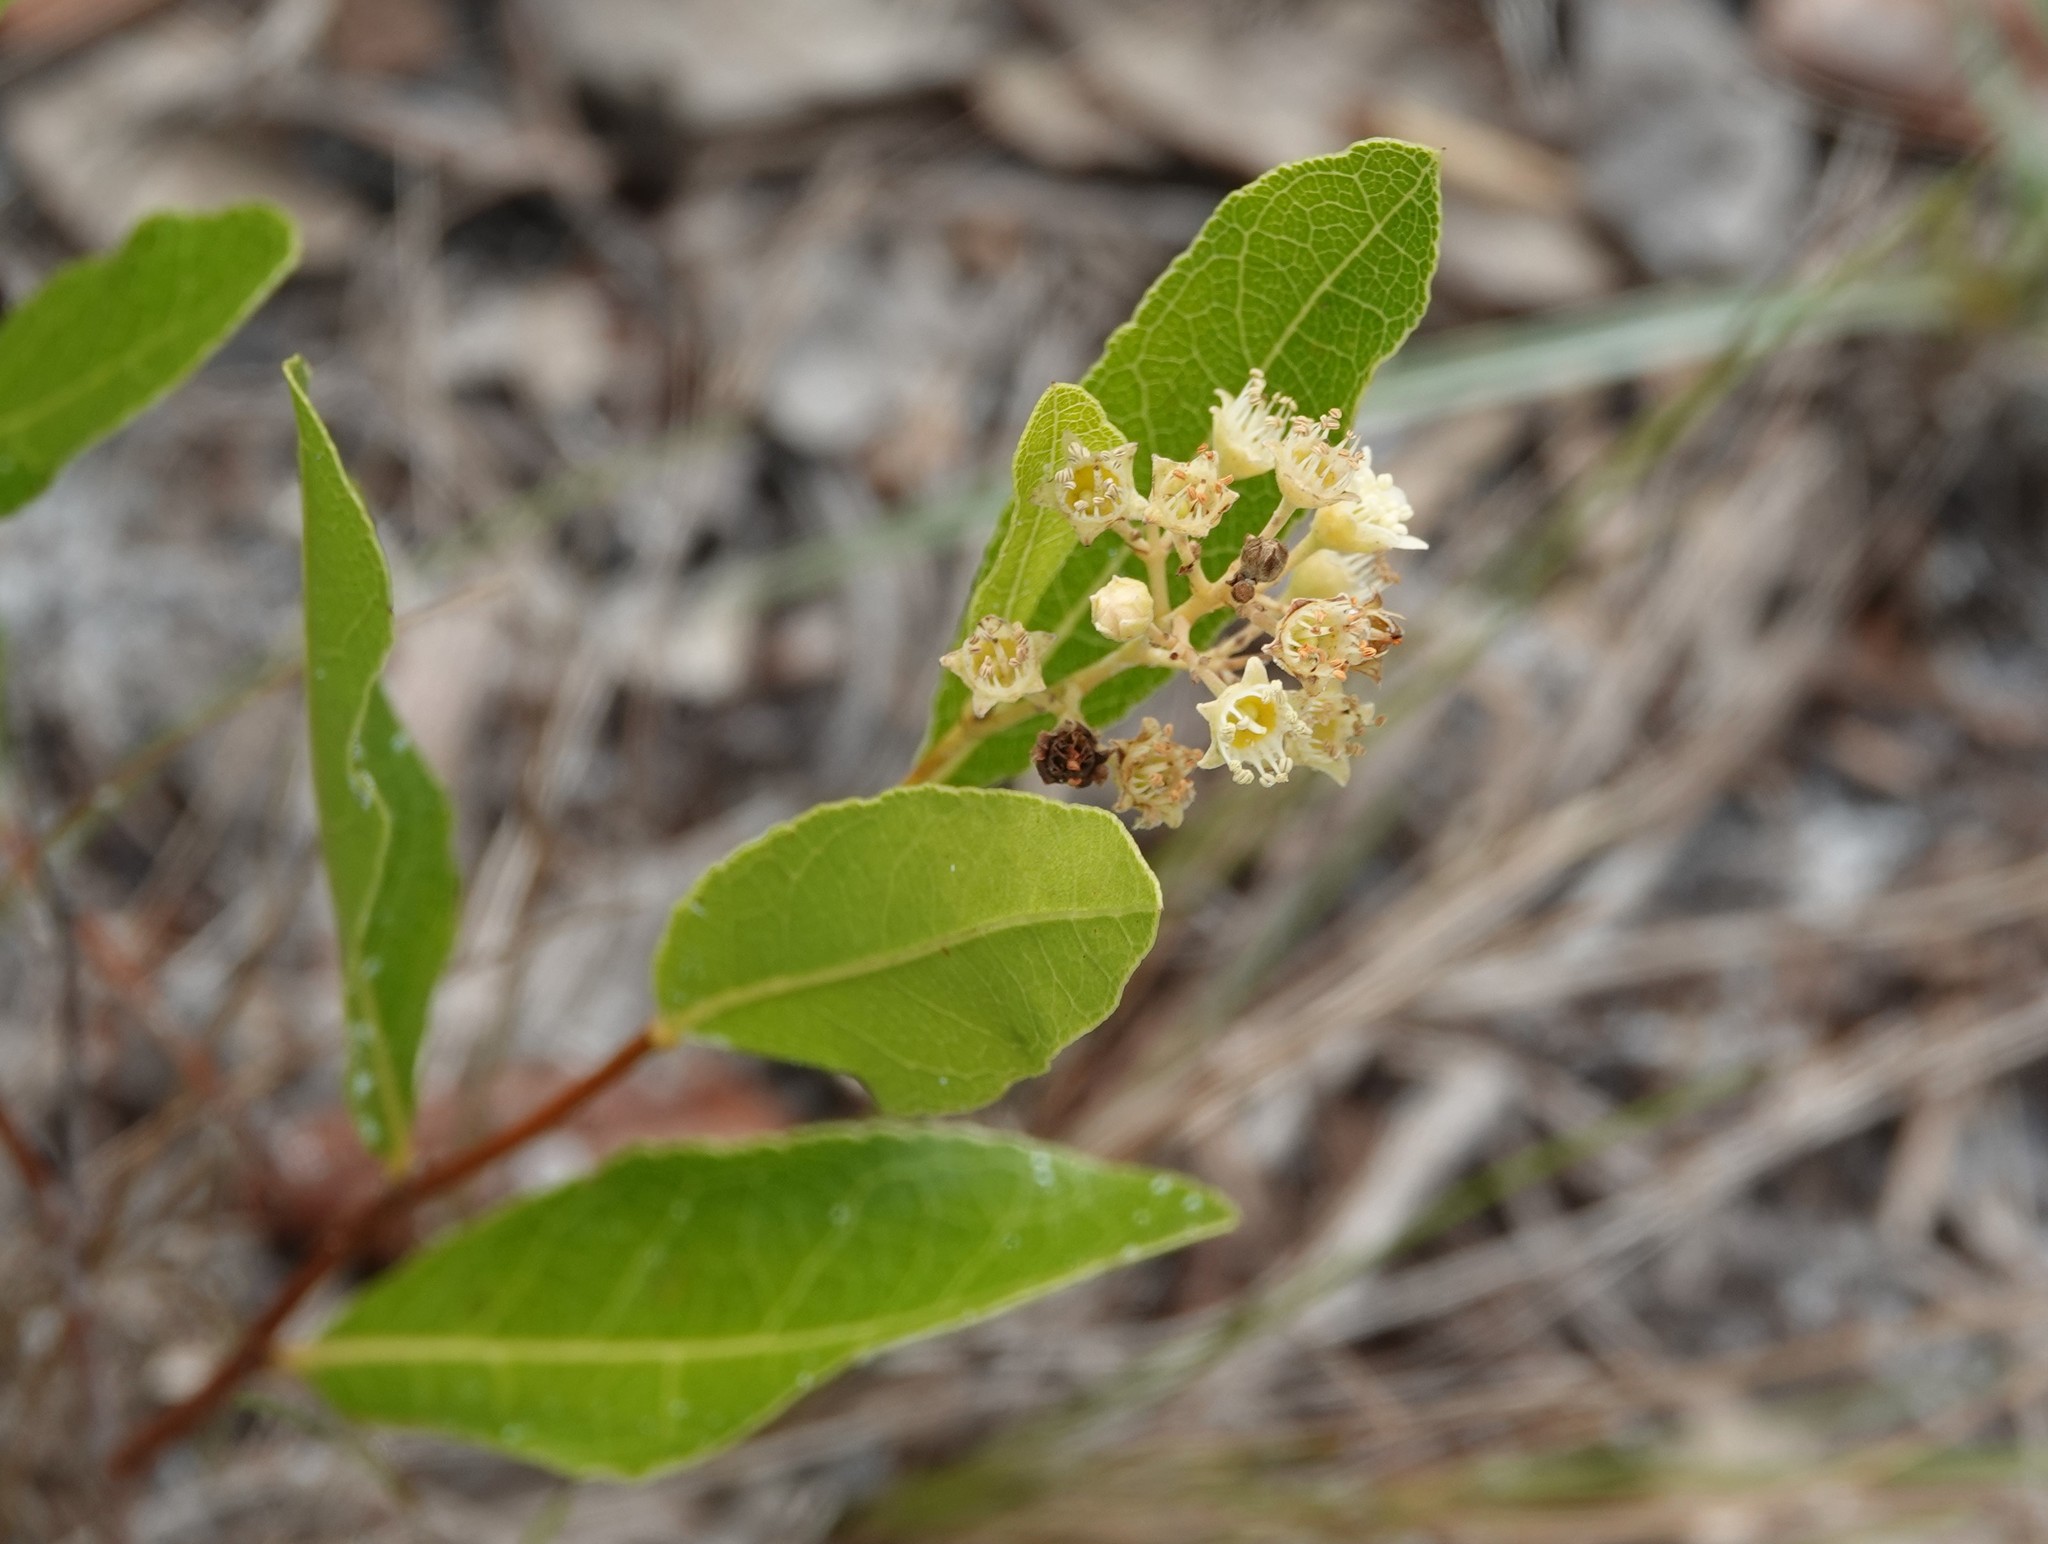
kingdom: Plantae
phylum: Tracheophyta
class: Magnoliopsida
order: Malpighiales
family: Chrysobalanaceae
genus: Geobalanus
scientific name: Geobalanus oblongifolius
